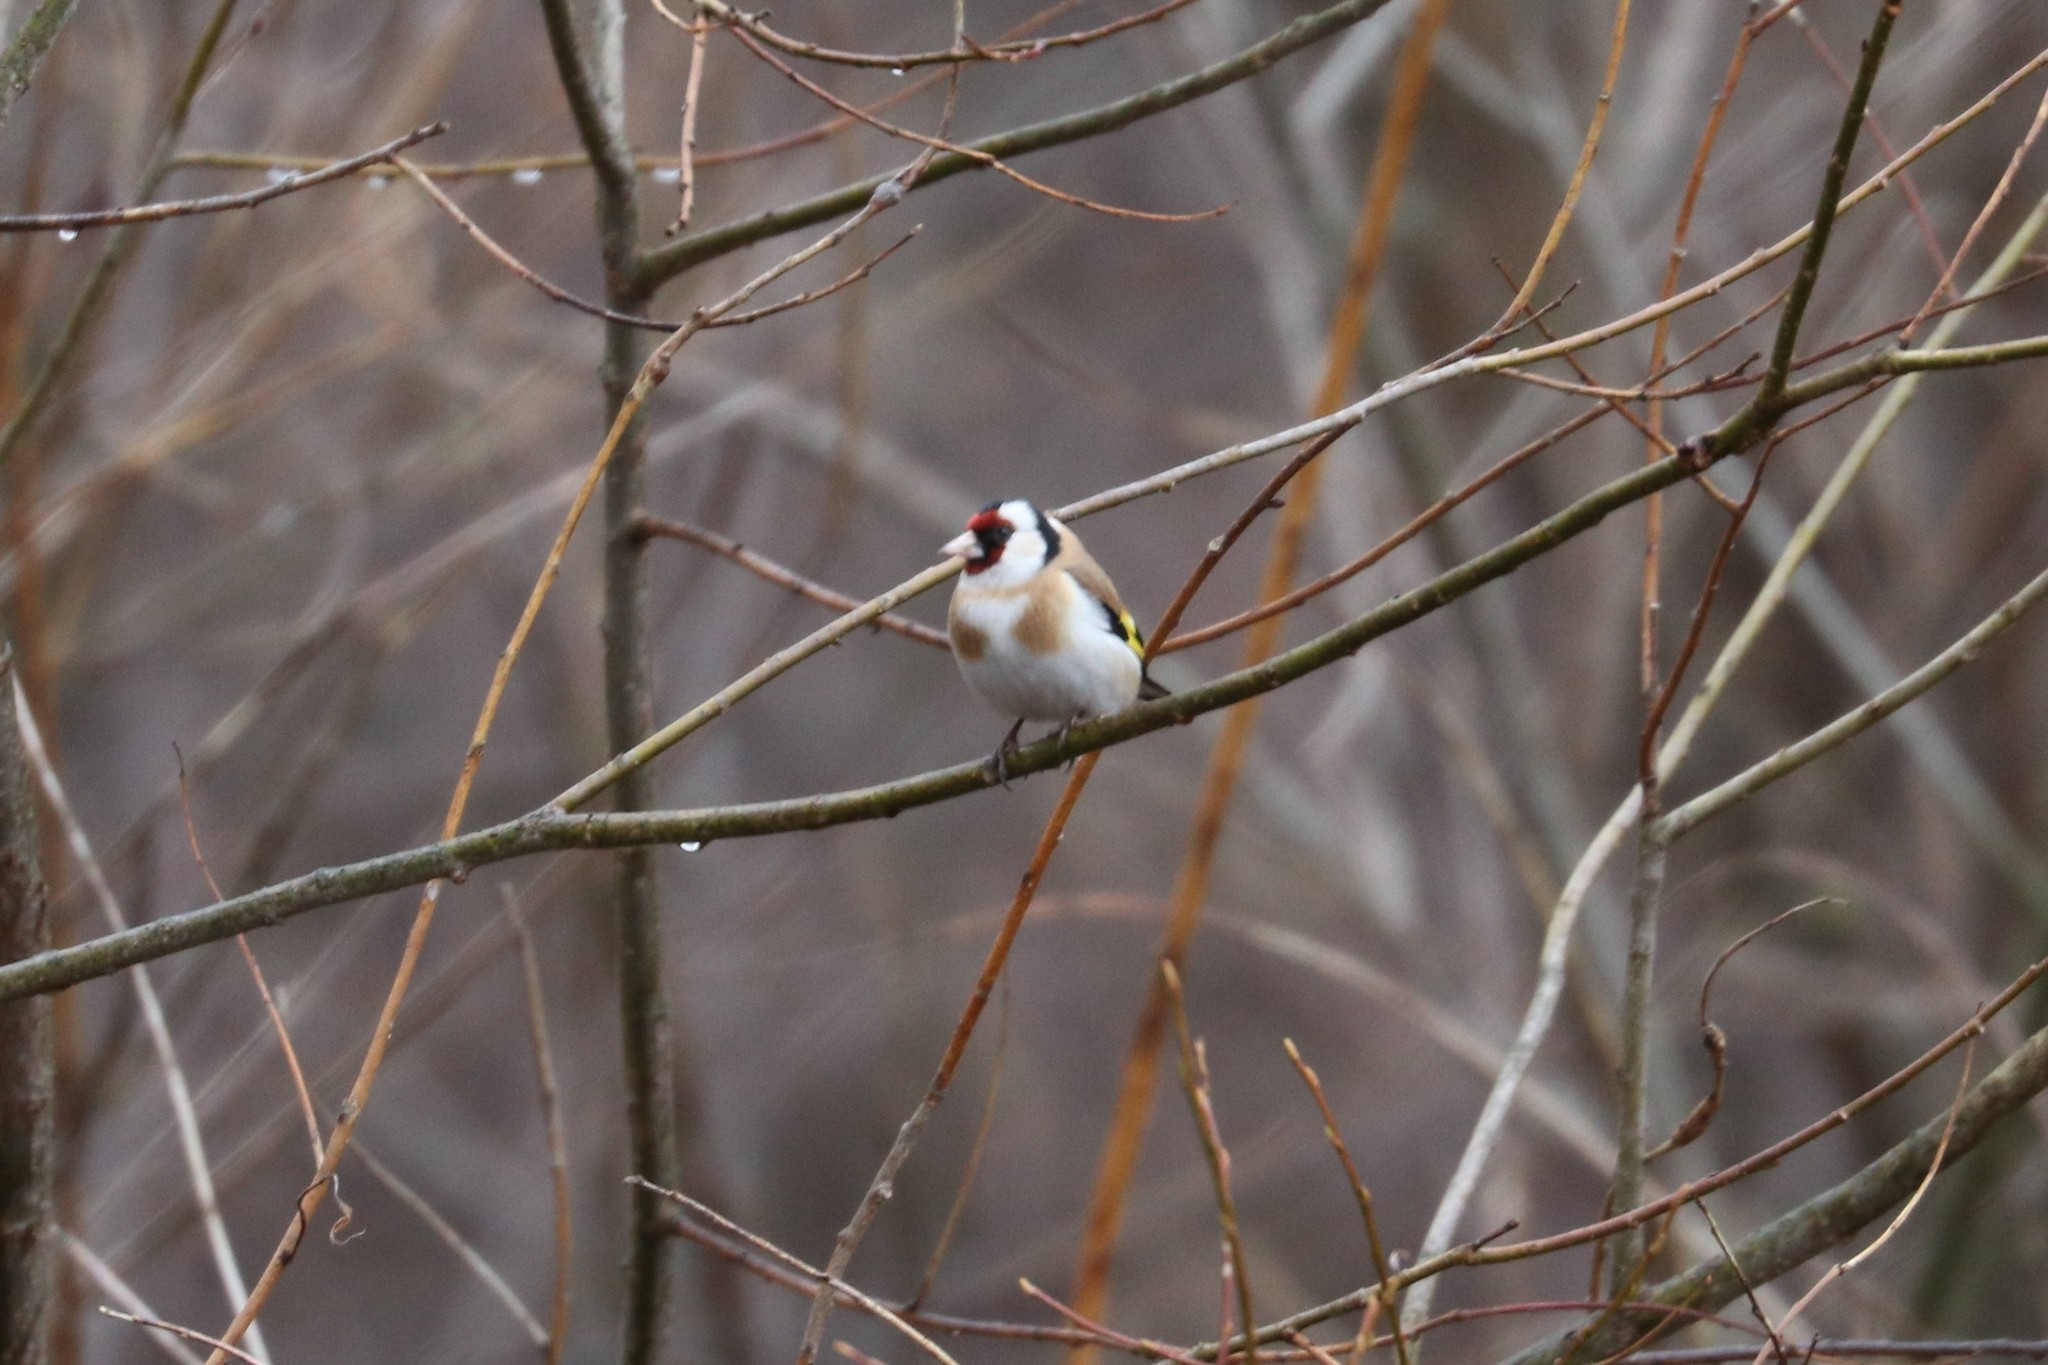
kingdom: Animalia
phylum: Chordata
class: Aves
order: Passeriformes
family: Fringillidae
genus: Carduelis
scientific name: Carduelis carduelis
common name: European goldfinch
